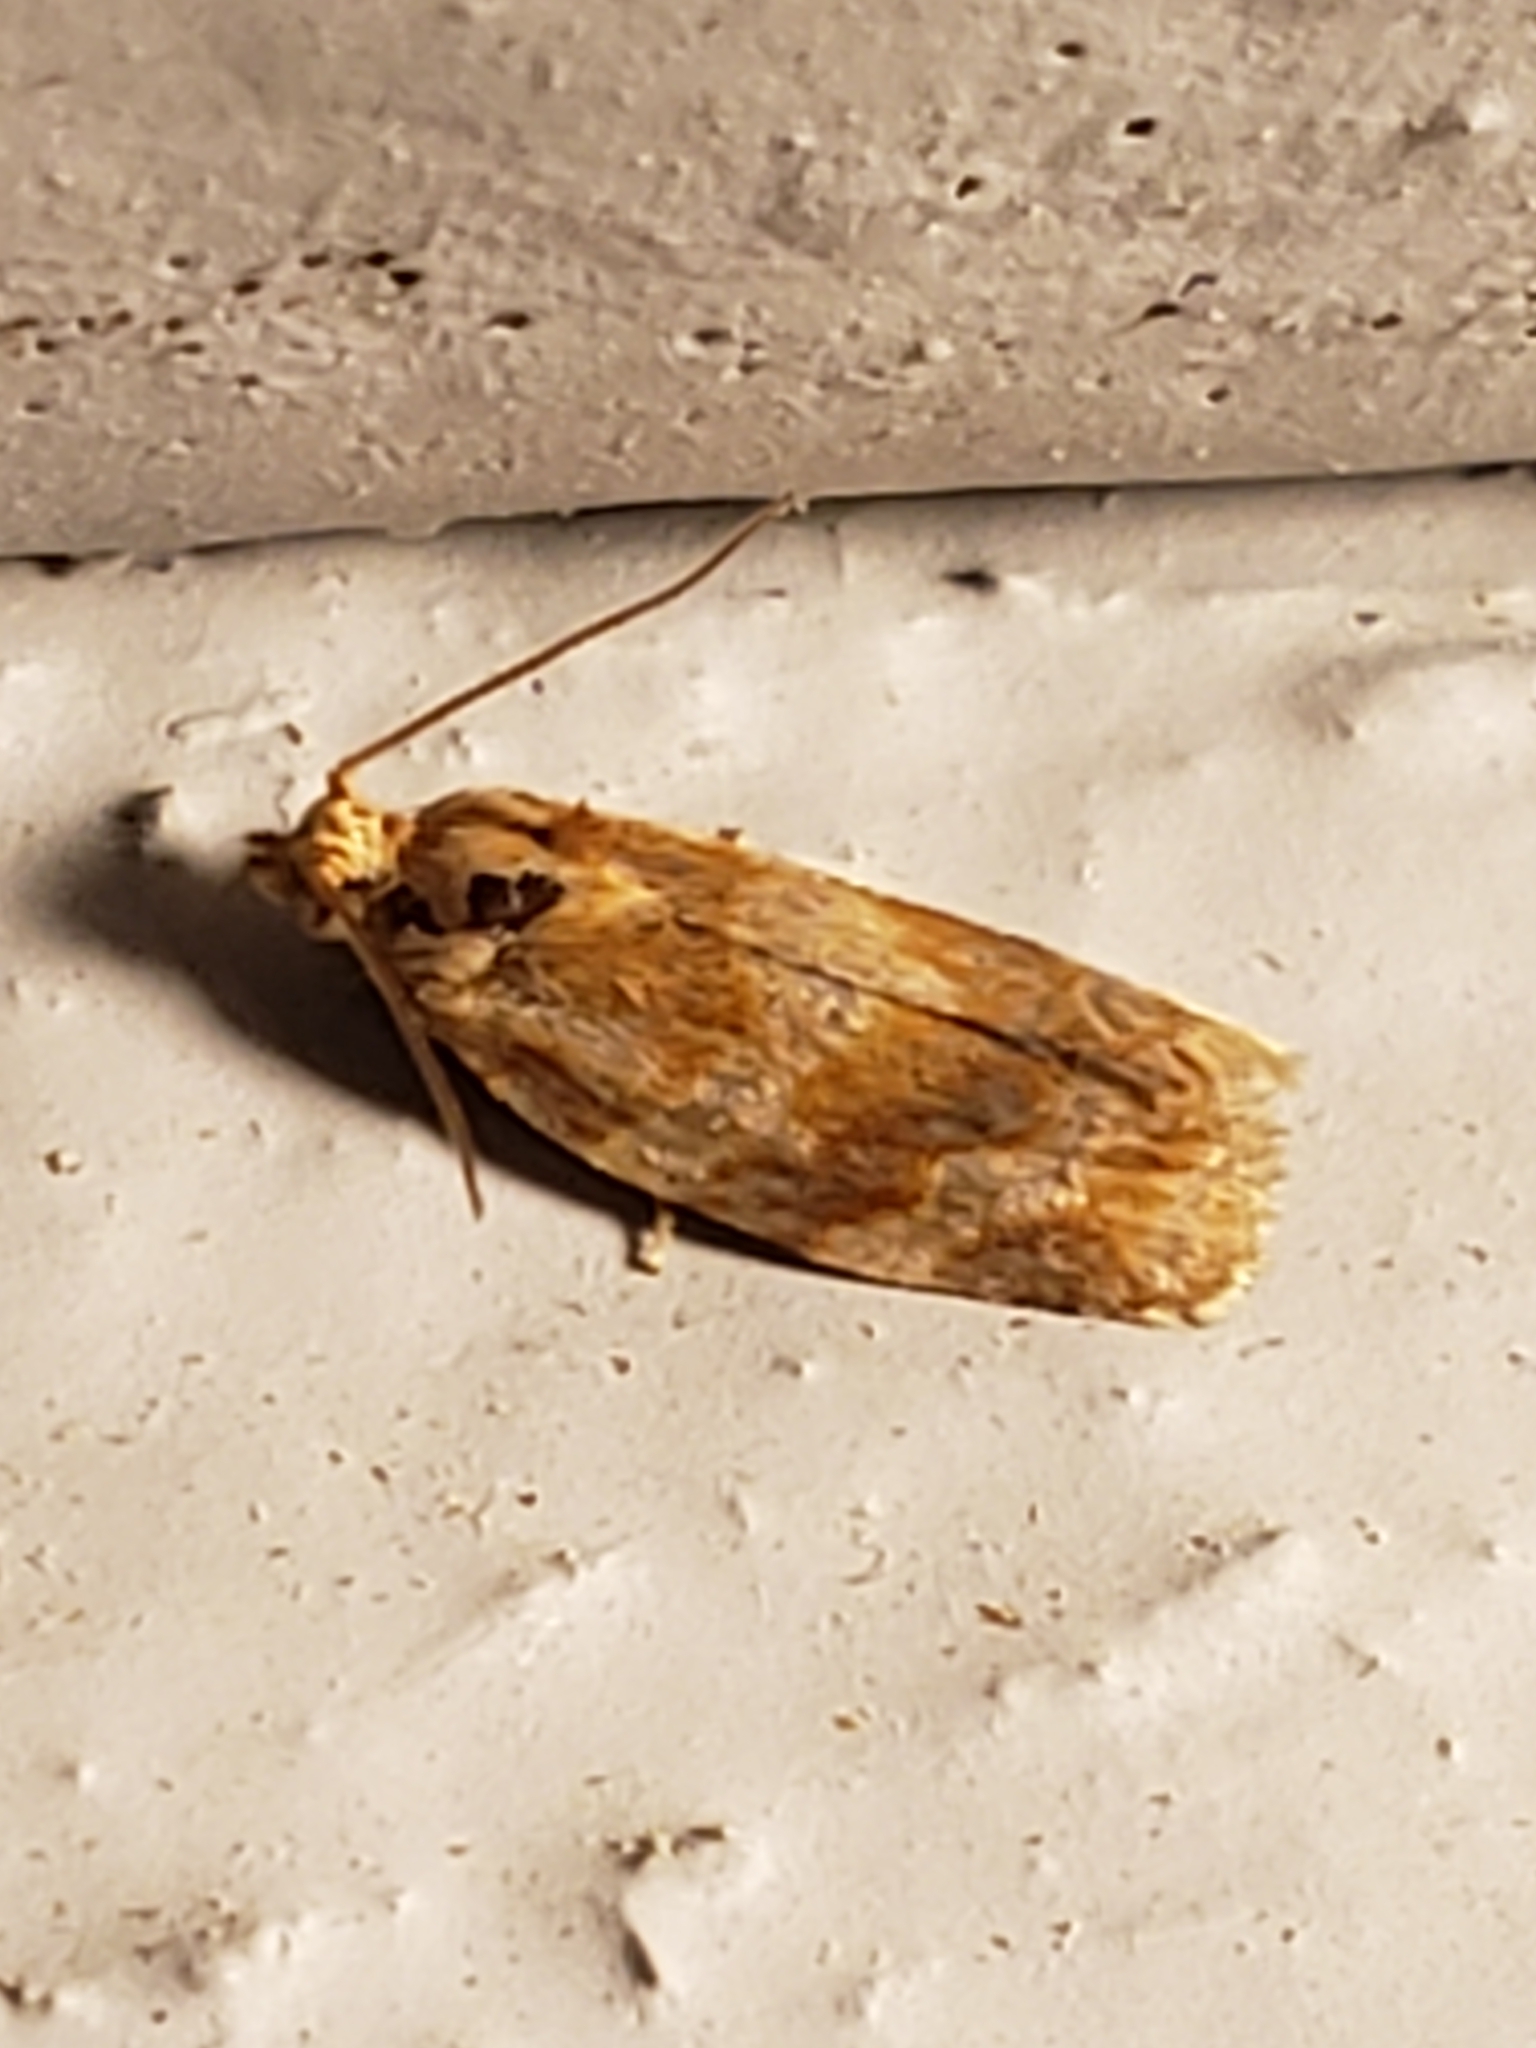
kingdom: Animalia
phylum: Arthropoda
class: Insecta
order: Lepidoptera
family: Tortricidae
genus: Argyrotaenia
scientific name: Argyrotaenia pinatubana
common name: Pine tube moth
